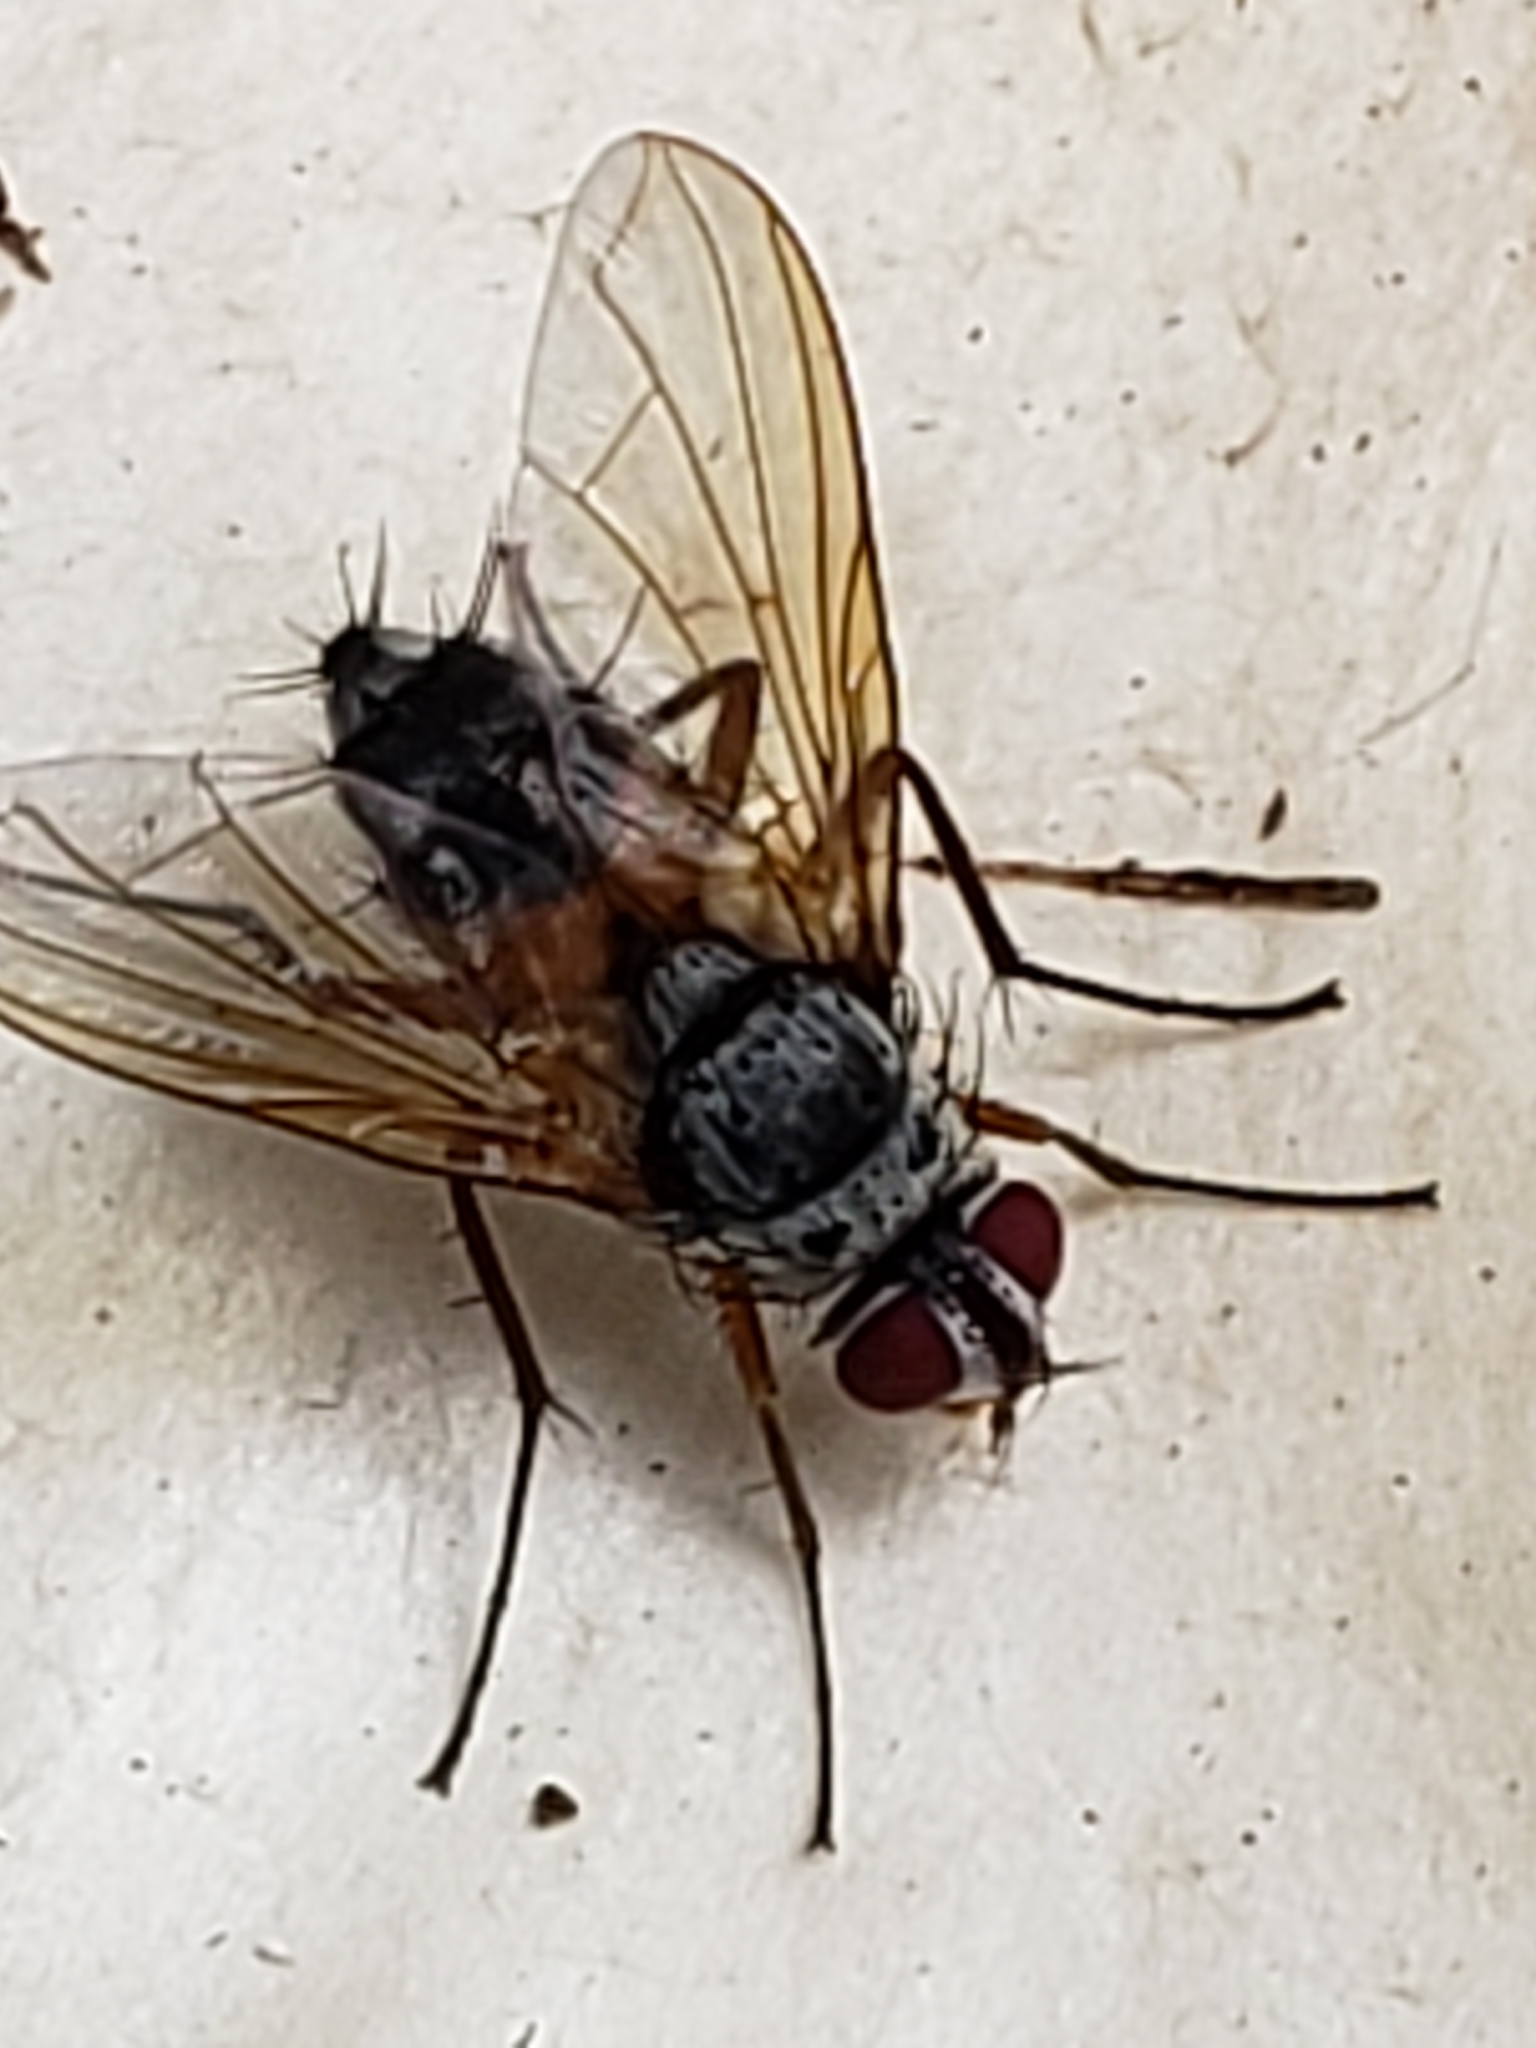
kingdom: Animalia
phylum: Arthropoda
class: Insecta
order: Diptera
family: Tachinidae
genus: Cholomyia
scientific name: Cholomyia inaequipes
